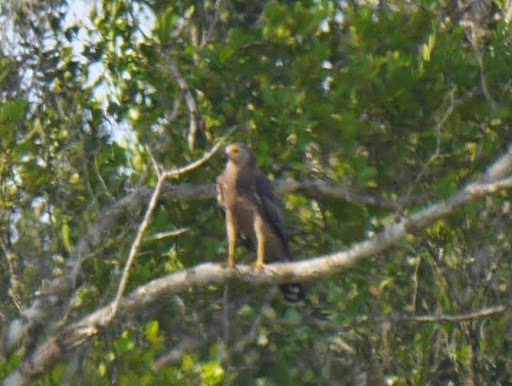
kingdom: Animalia
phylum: Chordata
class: Aves
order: Accipitriformes
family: Accipitridae
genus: Polyboroides
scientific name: Polyboroides typus
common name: African harrier-hawk
